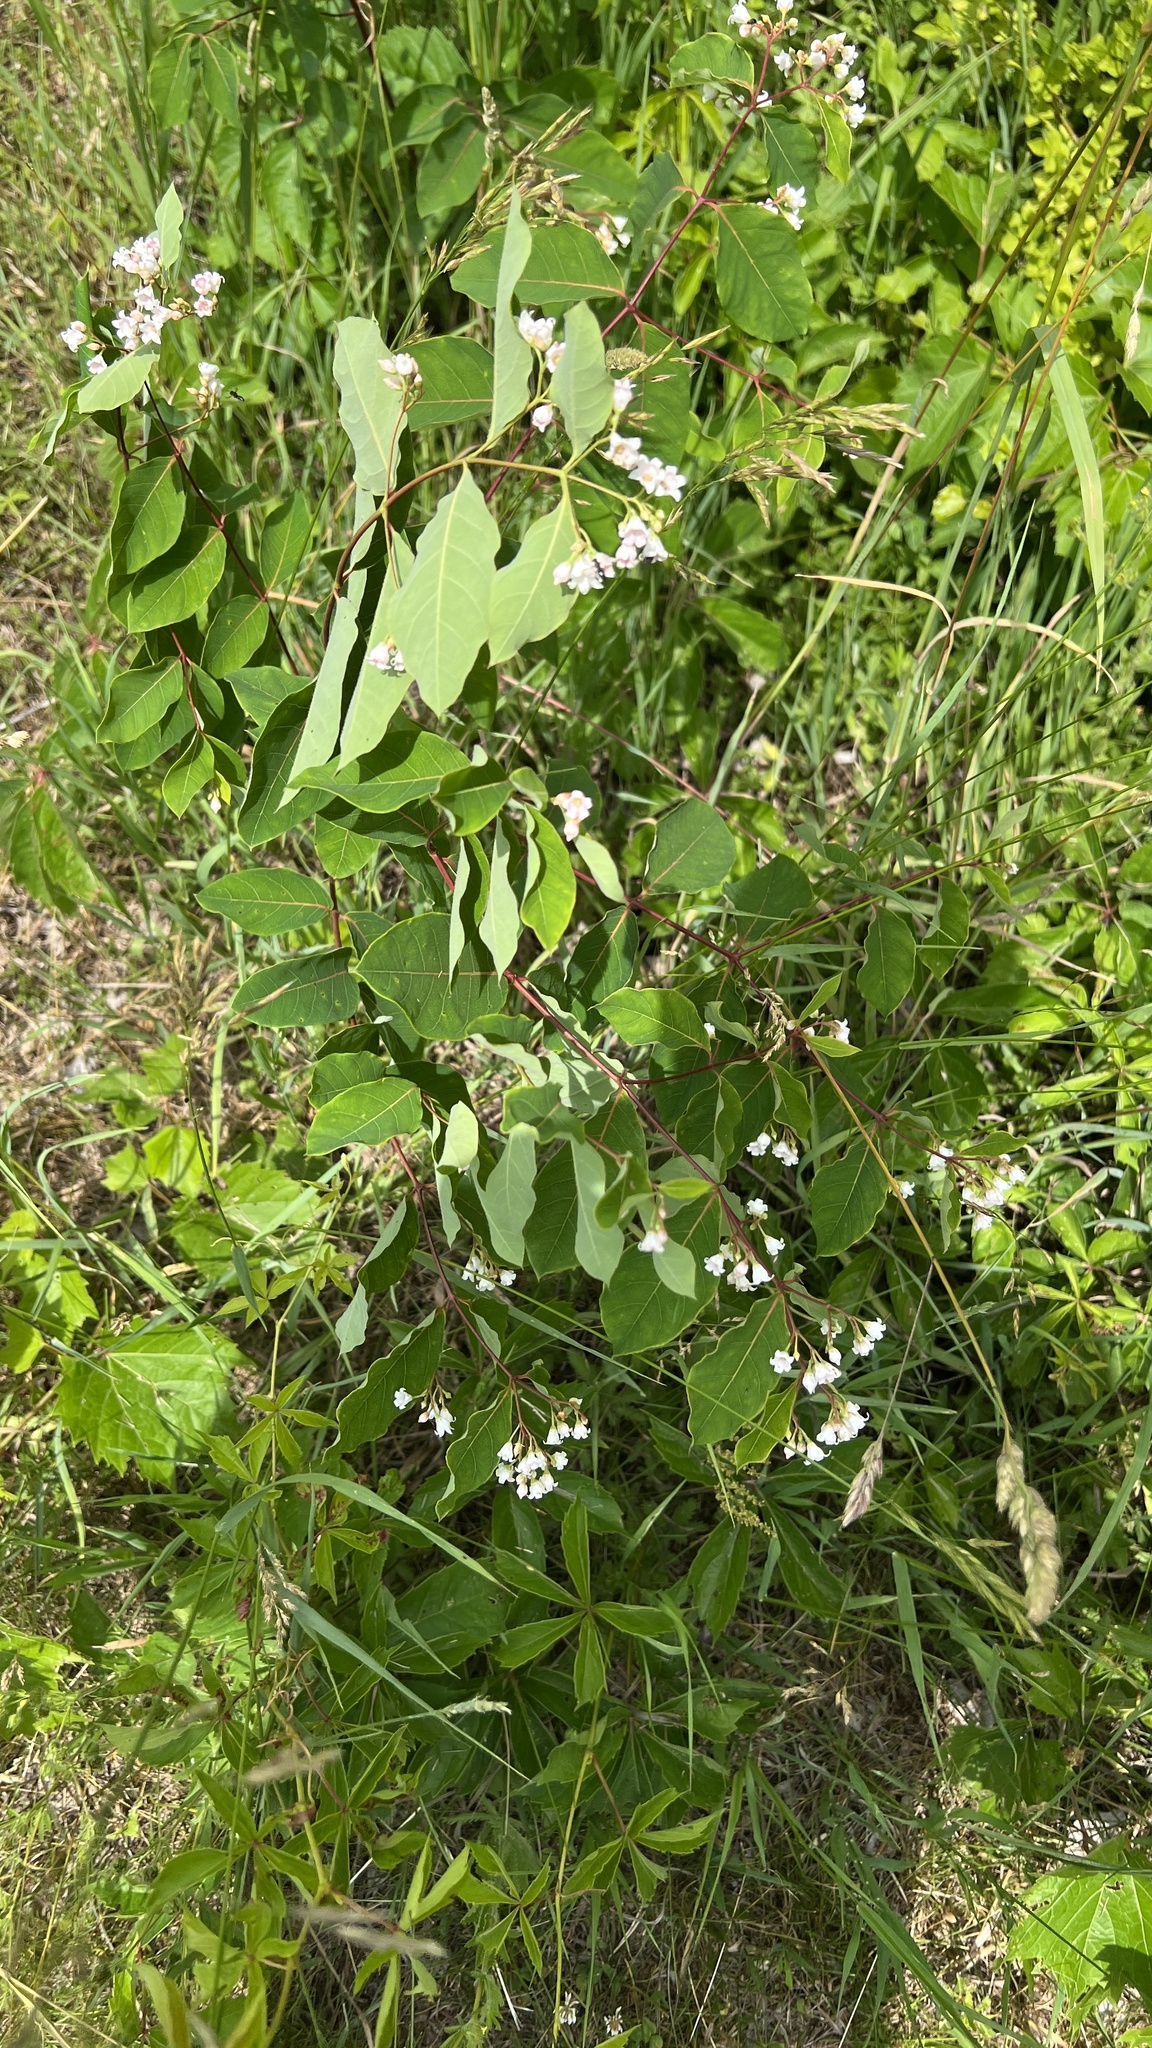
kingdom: Plantae
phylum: Tracheophyta
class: Magnoliopsida
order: Gentianales
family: Apocynaceae
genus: Apocynum
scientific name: Apocynum androsaemifolium
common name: Spreading dogbane
